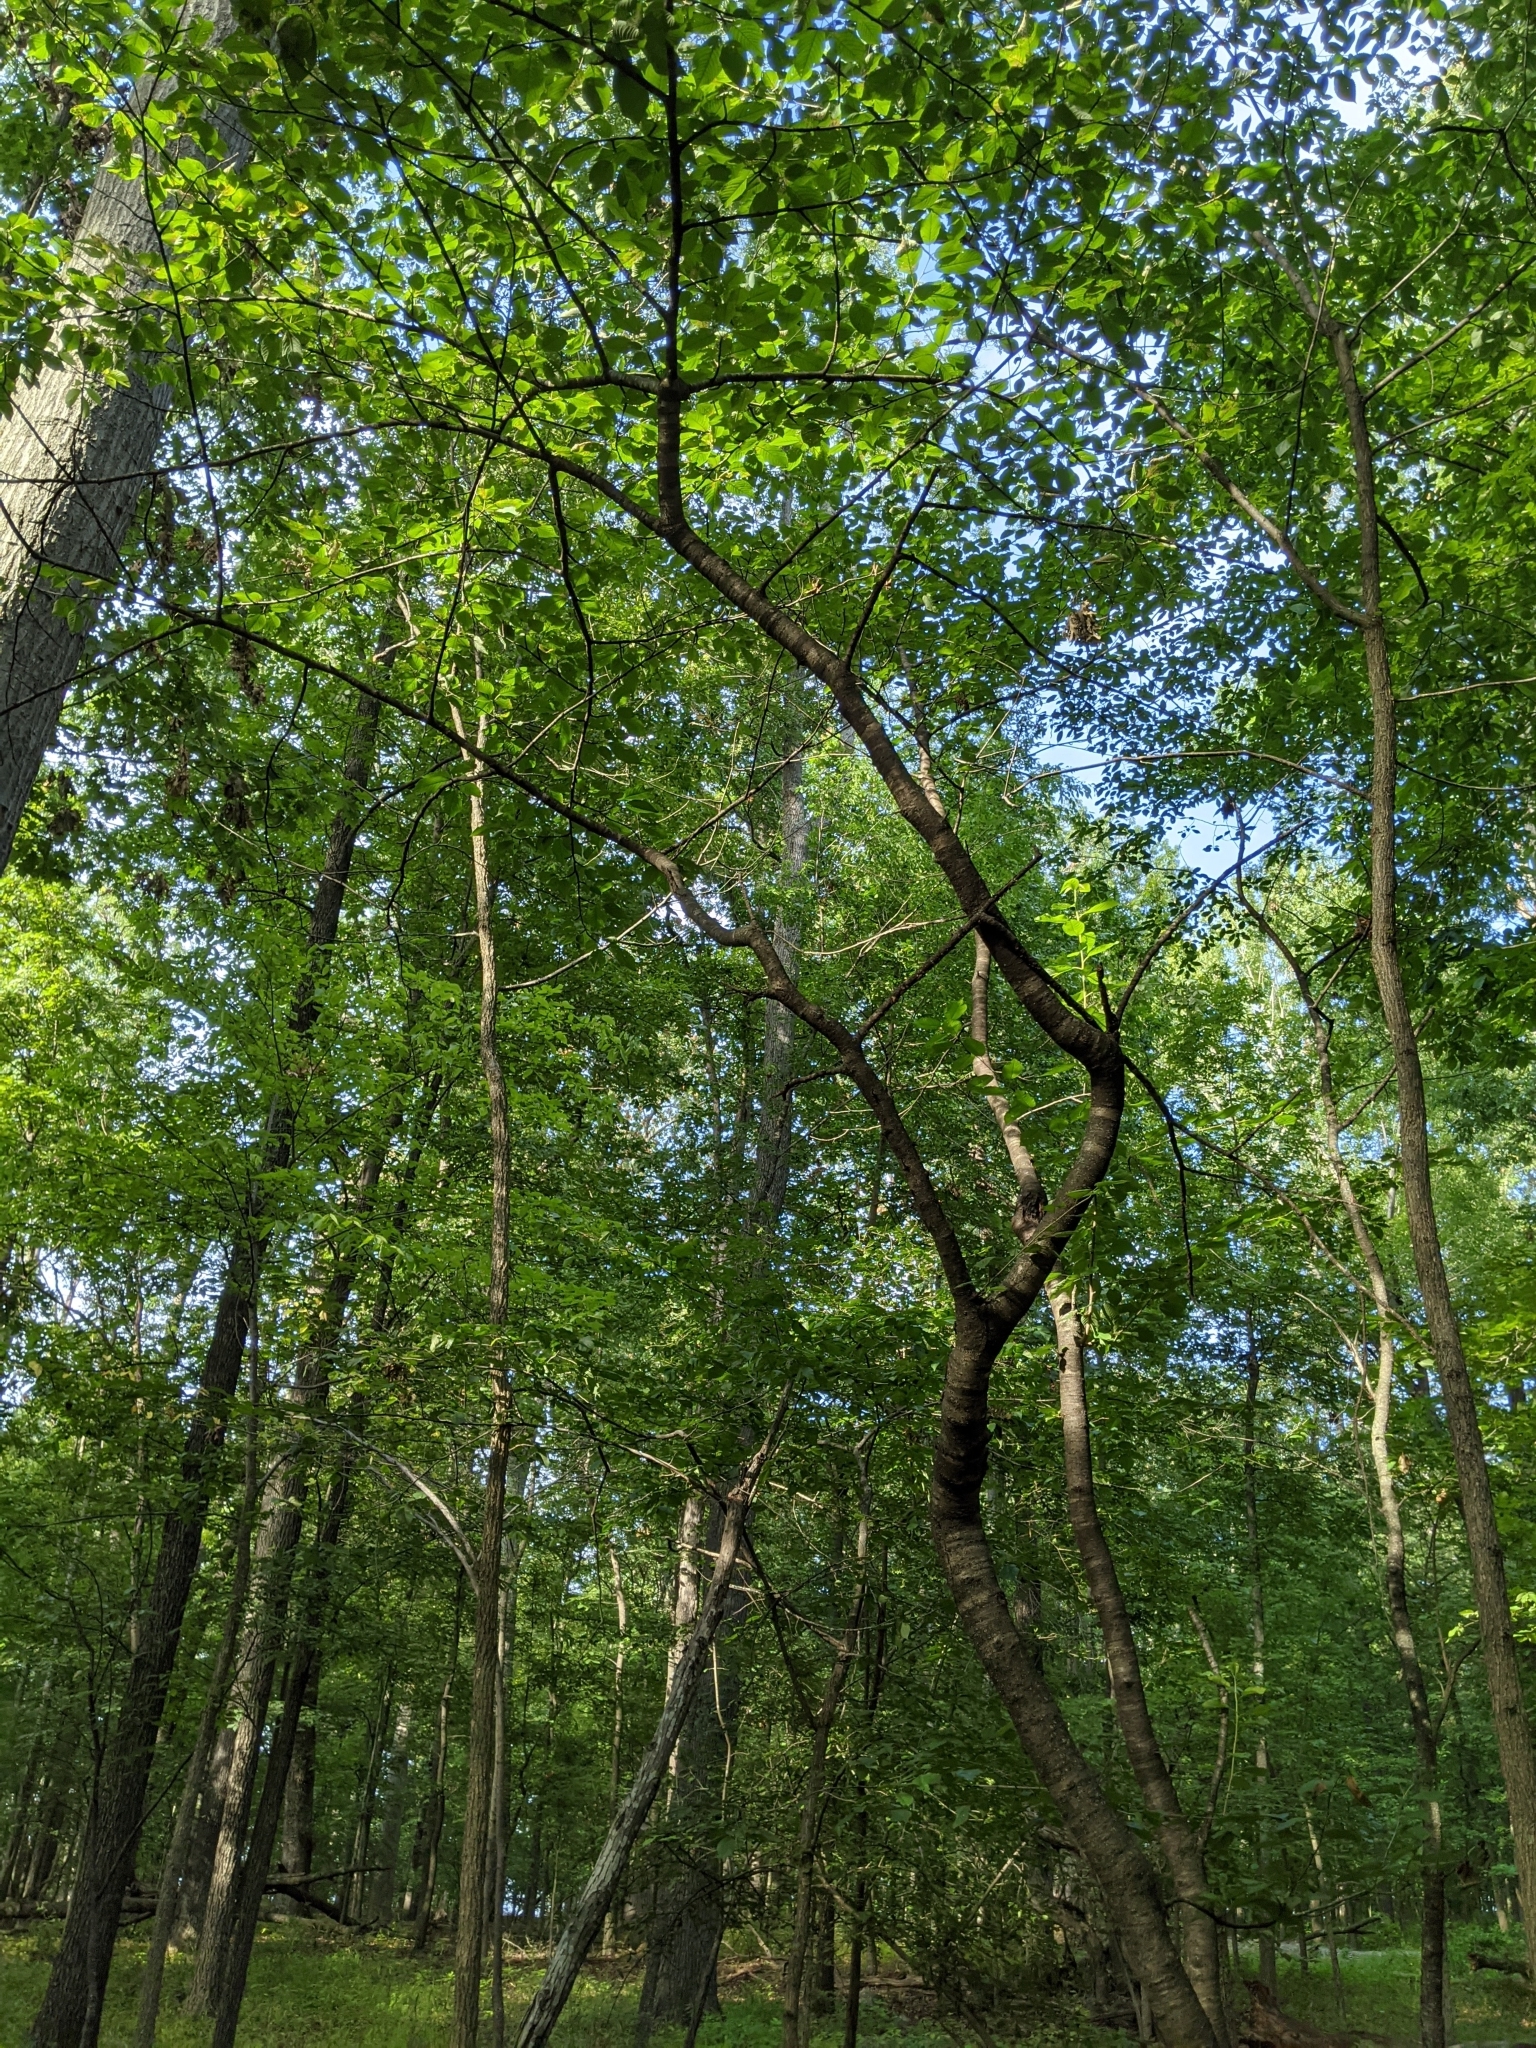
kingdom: Plantae
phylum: Tracheophyta
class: Magnoliopsida
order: Rosales
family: Rosaceae
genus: Prunus
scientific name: Prunus avium
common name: Sweet cherry
